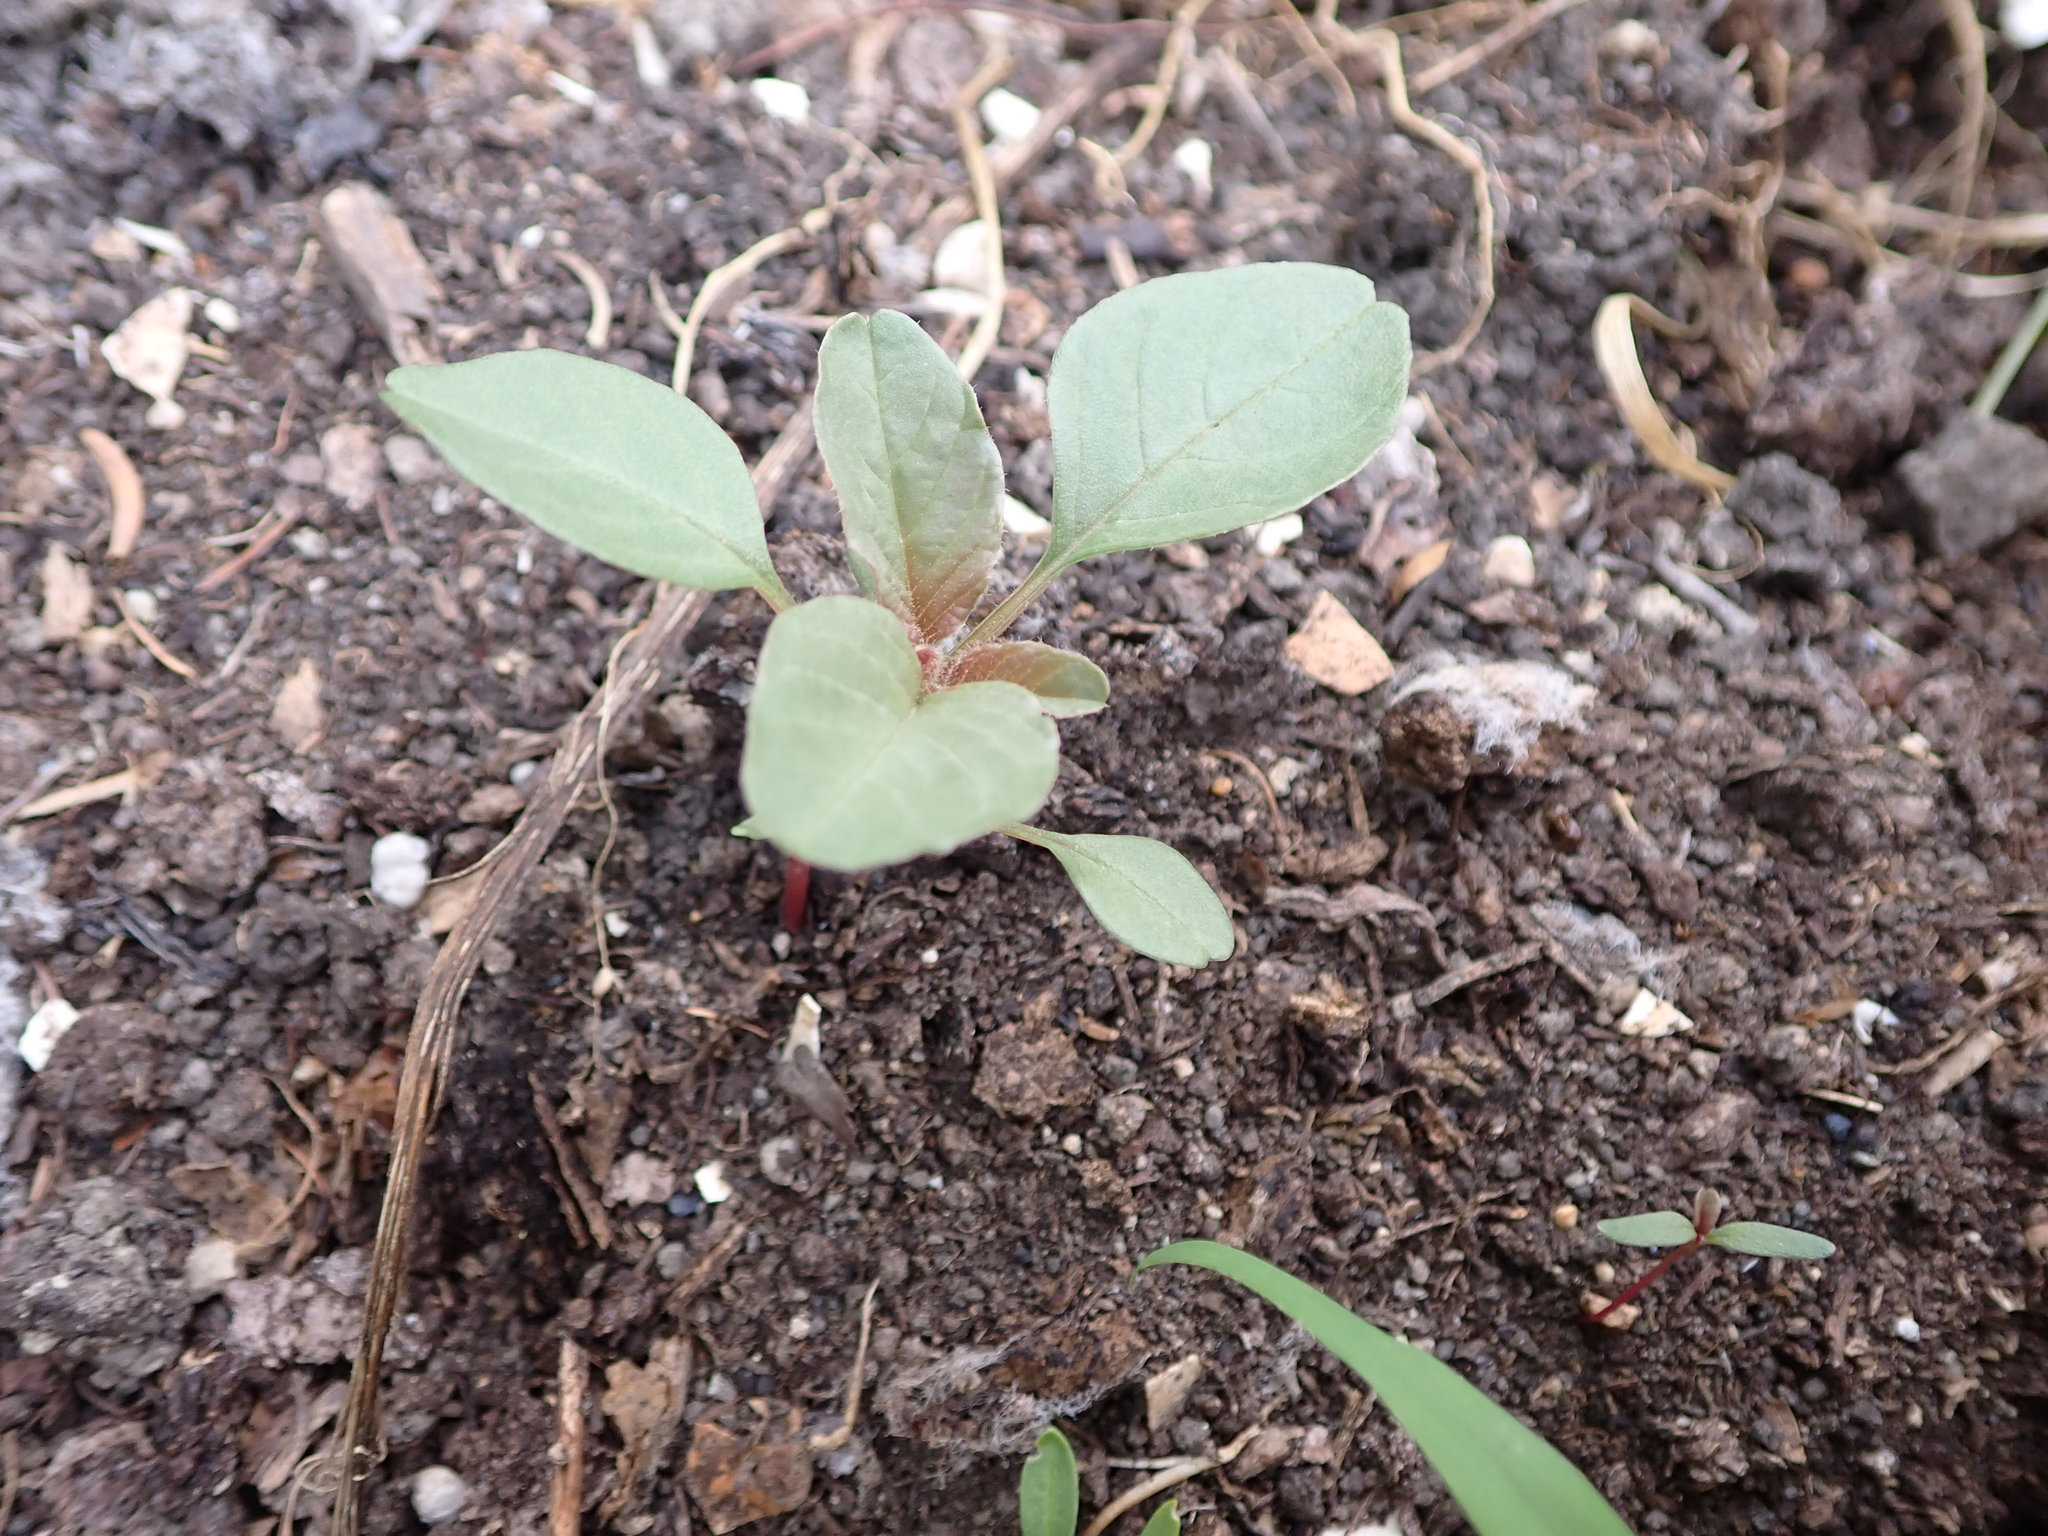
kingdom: Plantae
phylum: Tracheophyta
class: Magnoliopsida
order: Caryophyllales
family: Amaranthaceae
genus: Amaranthus
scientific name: Amaranthus retroflexus
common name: Redroot amaranth
